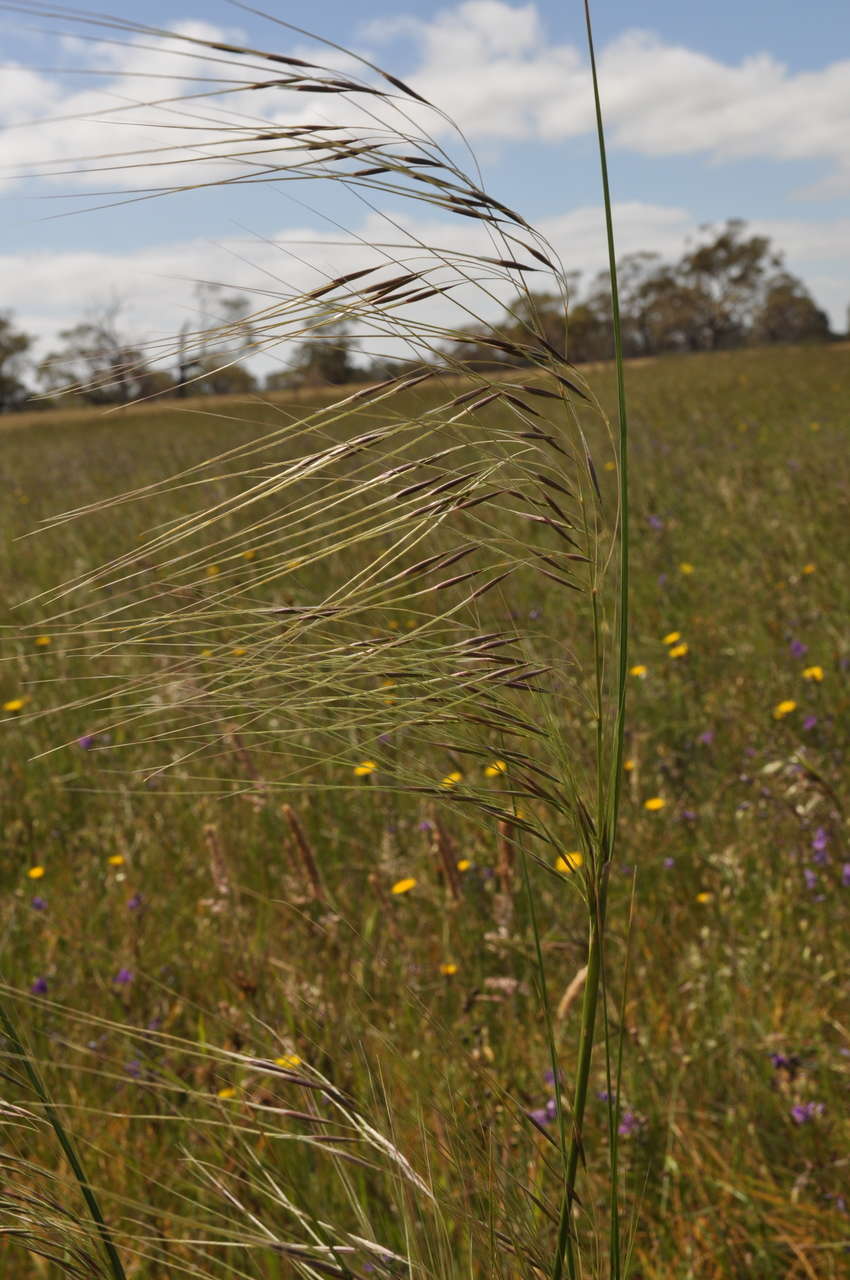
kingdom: Plantae
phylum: Tracheophyta
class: Liliopsida
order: Poales
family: Poaceae
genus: Nassella
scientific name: Nassella neesiana
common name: American needle-grass
